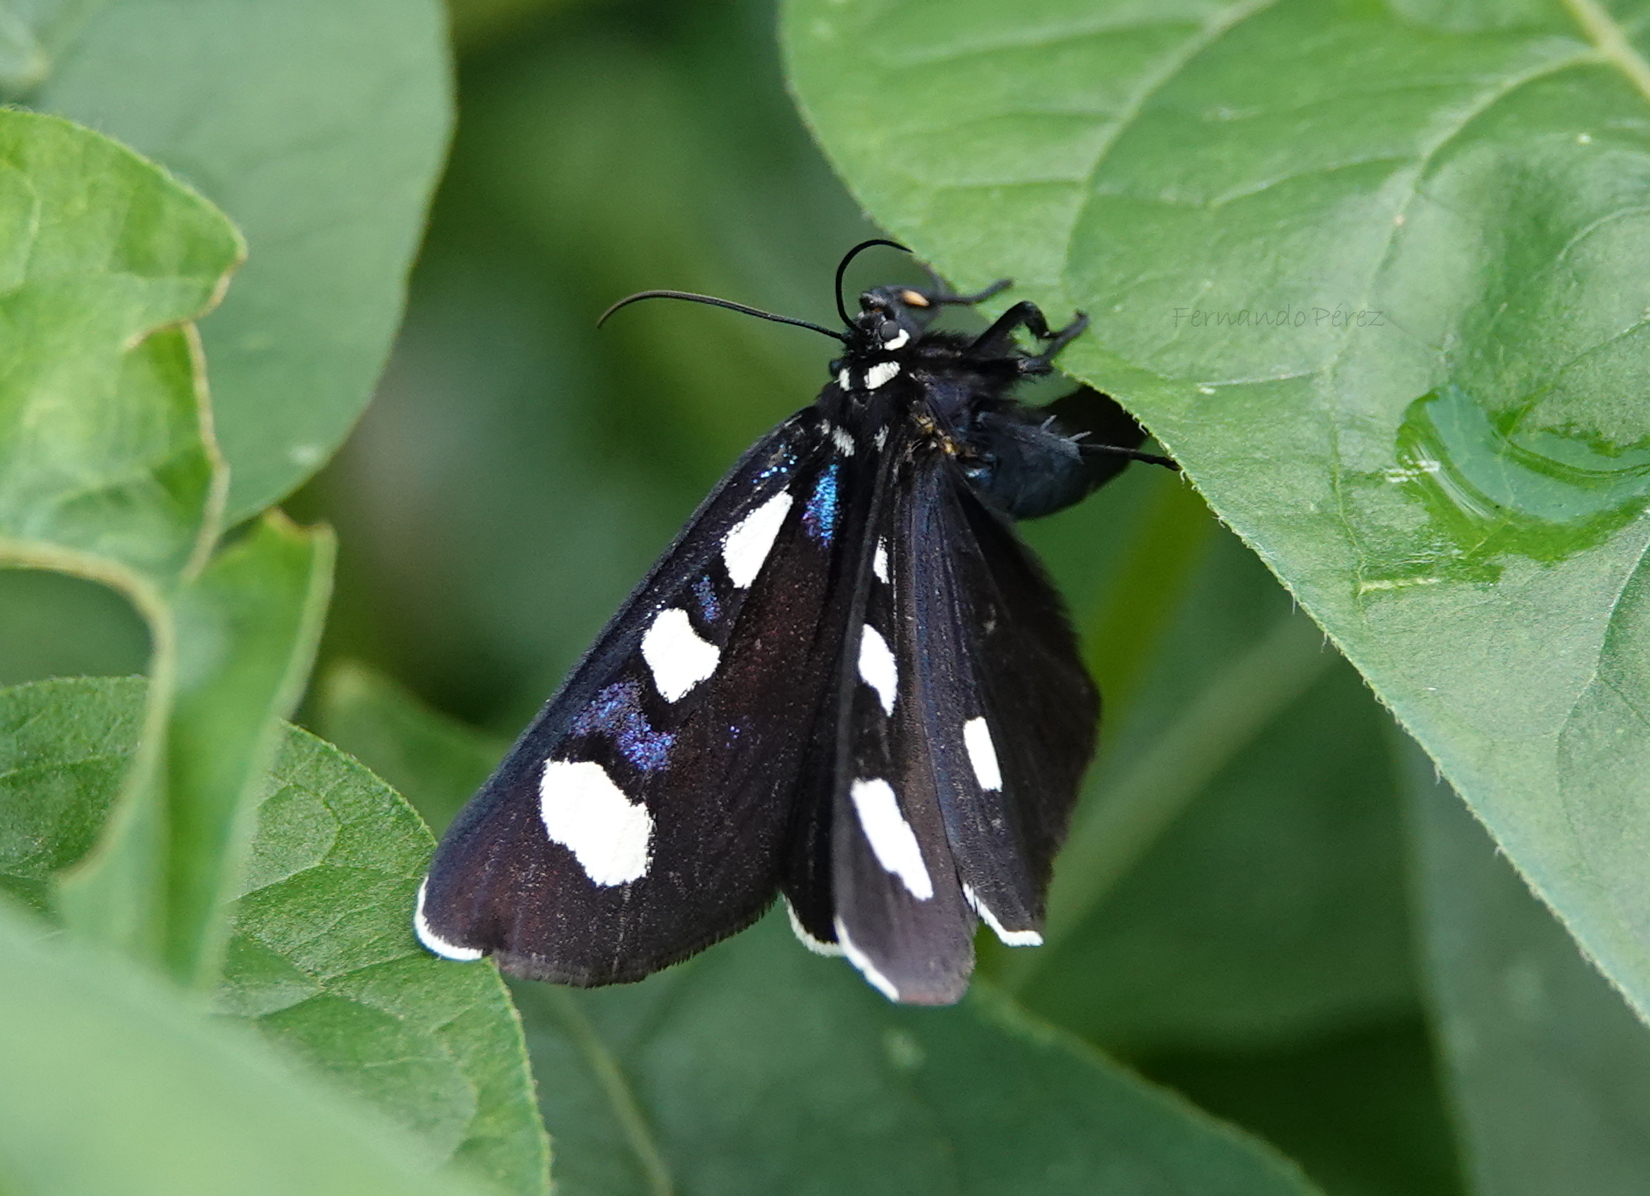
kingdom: Animalia
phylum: Arthropoda
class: Insecta
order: Lepidoptera
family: Noctuidae
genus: Alypiodes
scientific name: Alypiodes bimaculata
